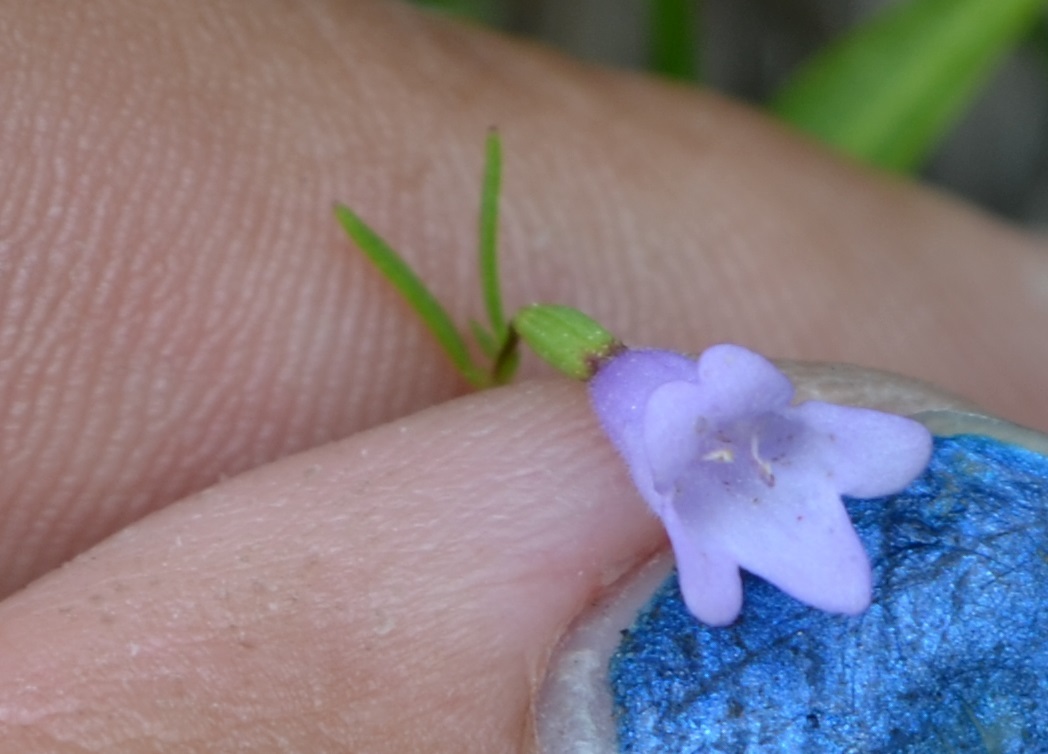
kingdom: Plantae
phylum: Tracheophyta
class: Magnoliopsida
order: Lamiales
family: Lamiaceae
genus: Clinopodium
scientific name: Clinopodium arkansanum
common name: Limestone calamint
